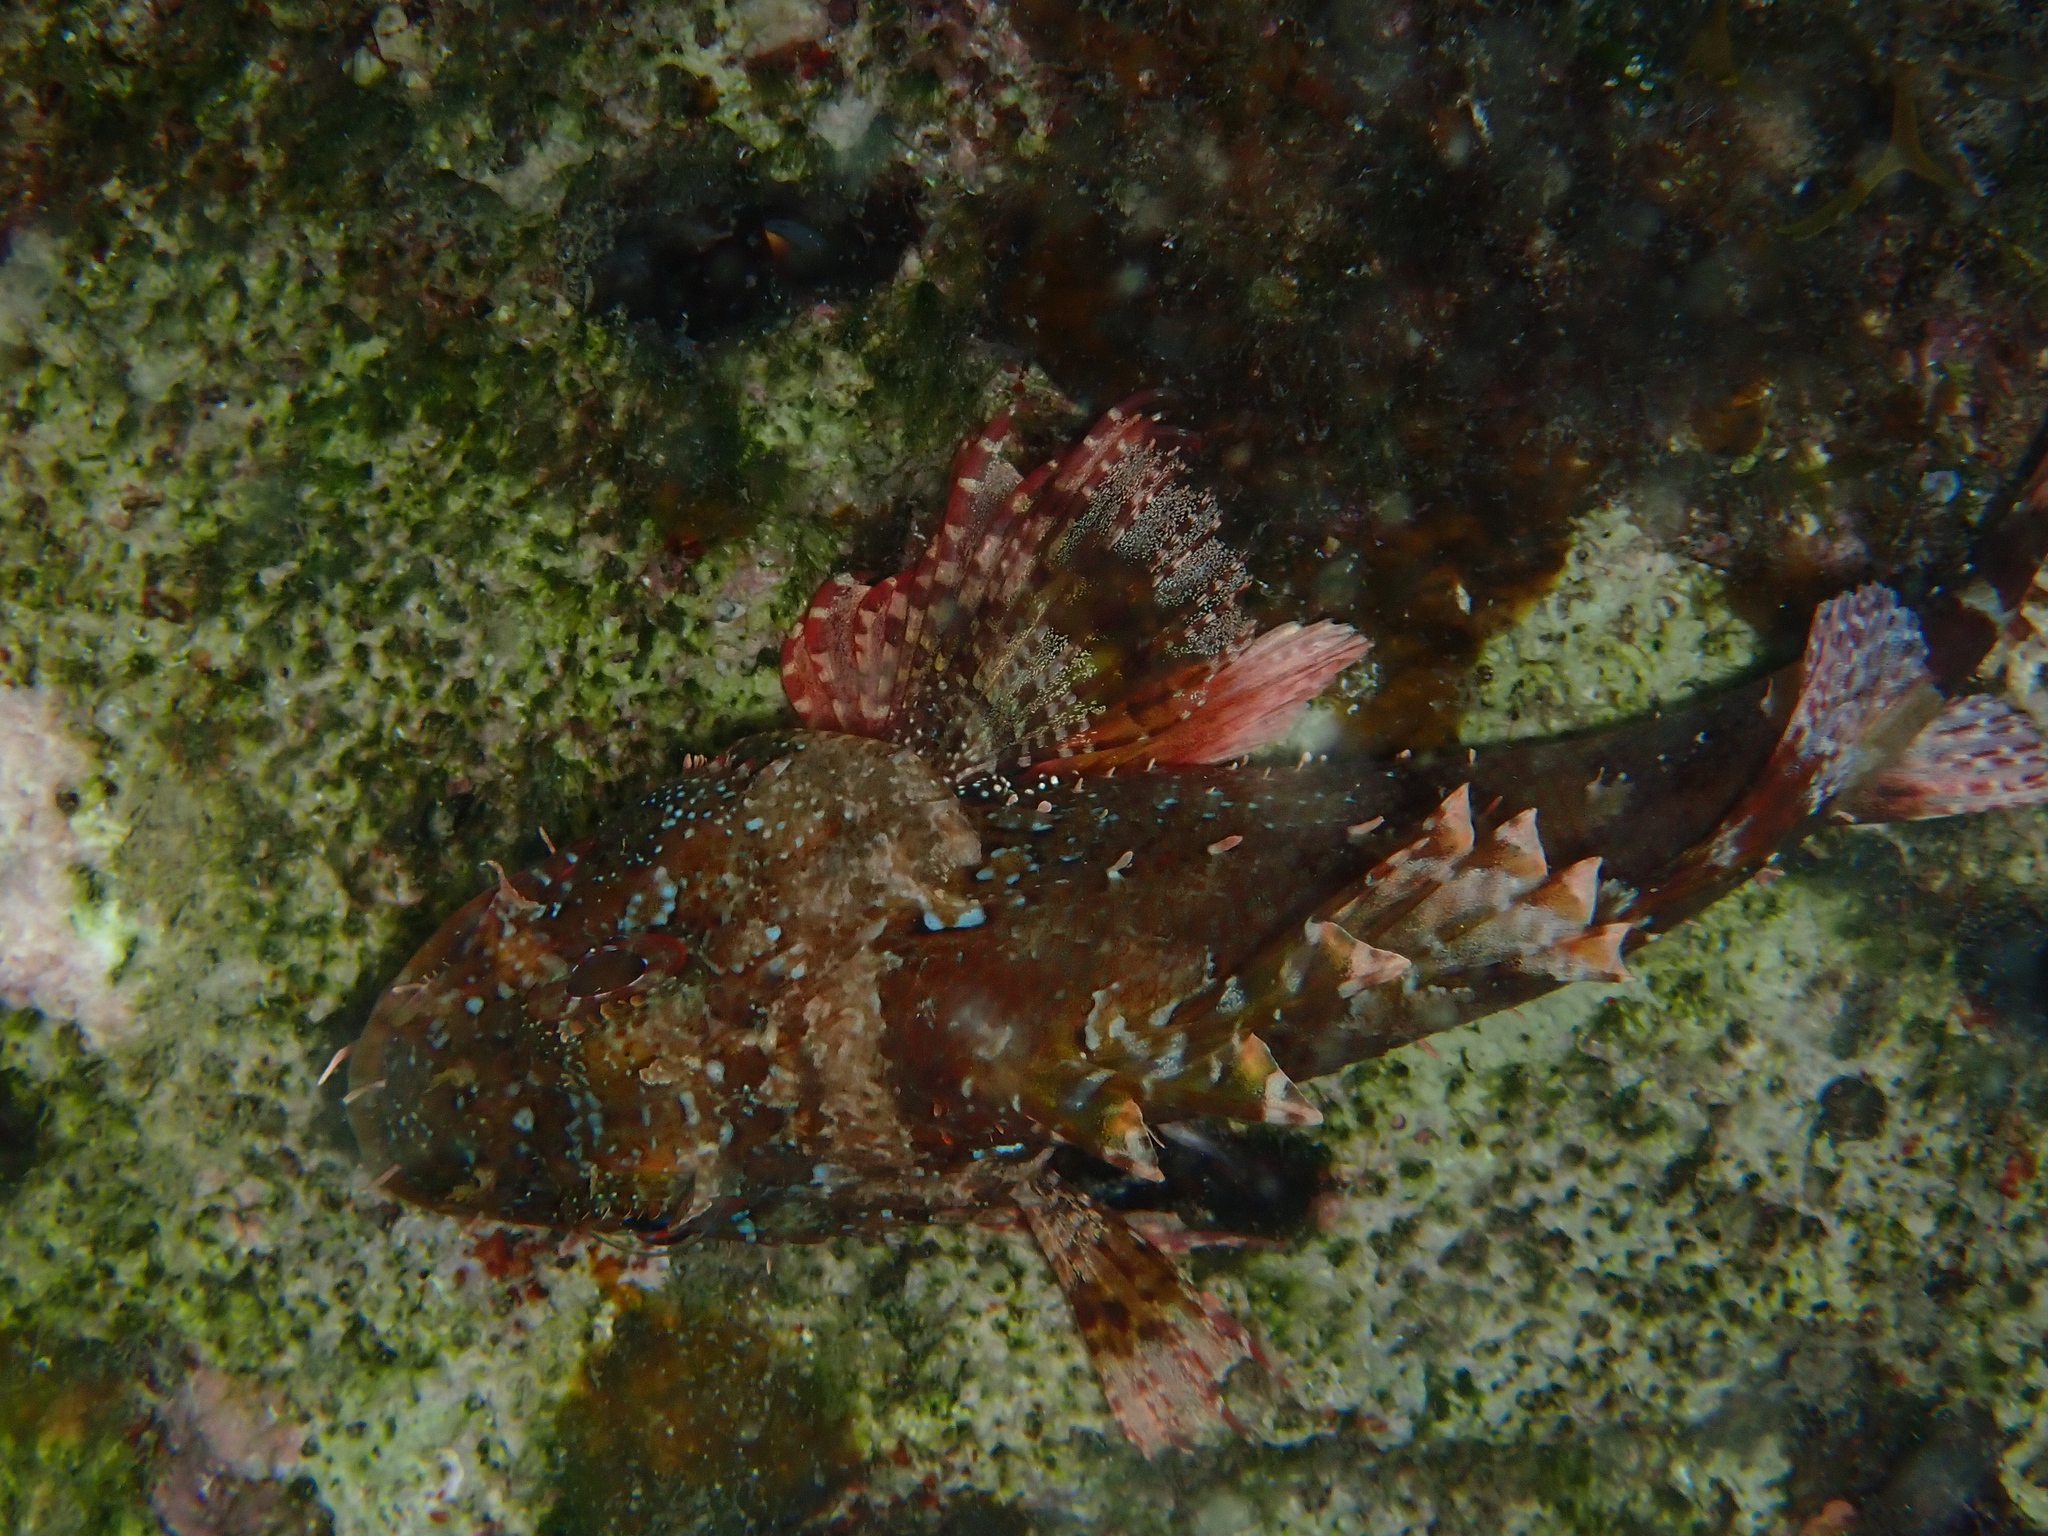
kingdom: Animalia
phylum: Chordata
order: Scorpaeniformes
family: Scorpaenidae
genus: Scorpaena
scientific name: Scorpaena maderensis
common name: Madeira rockfish
